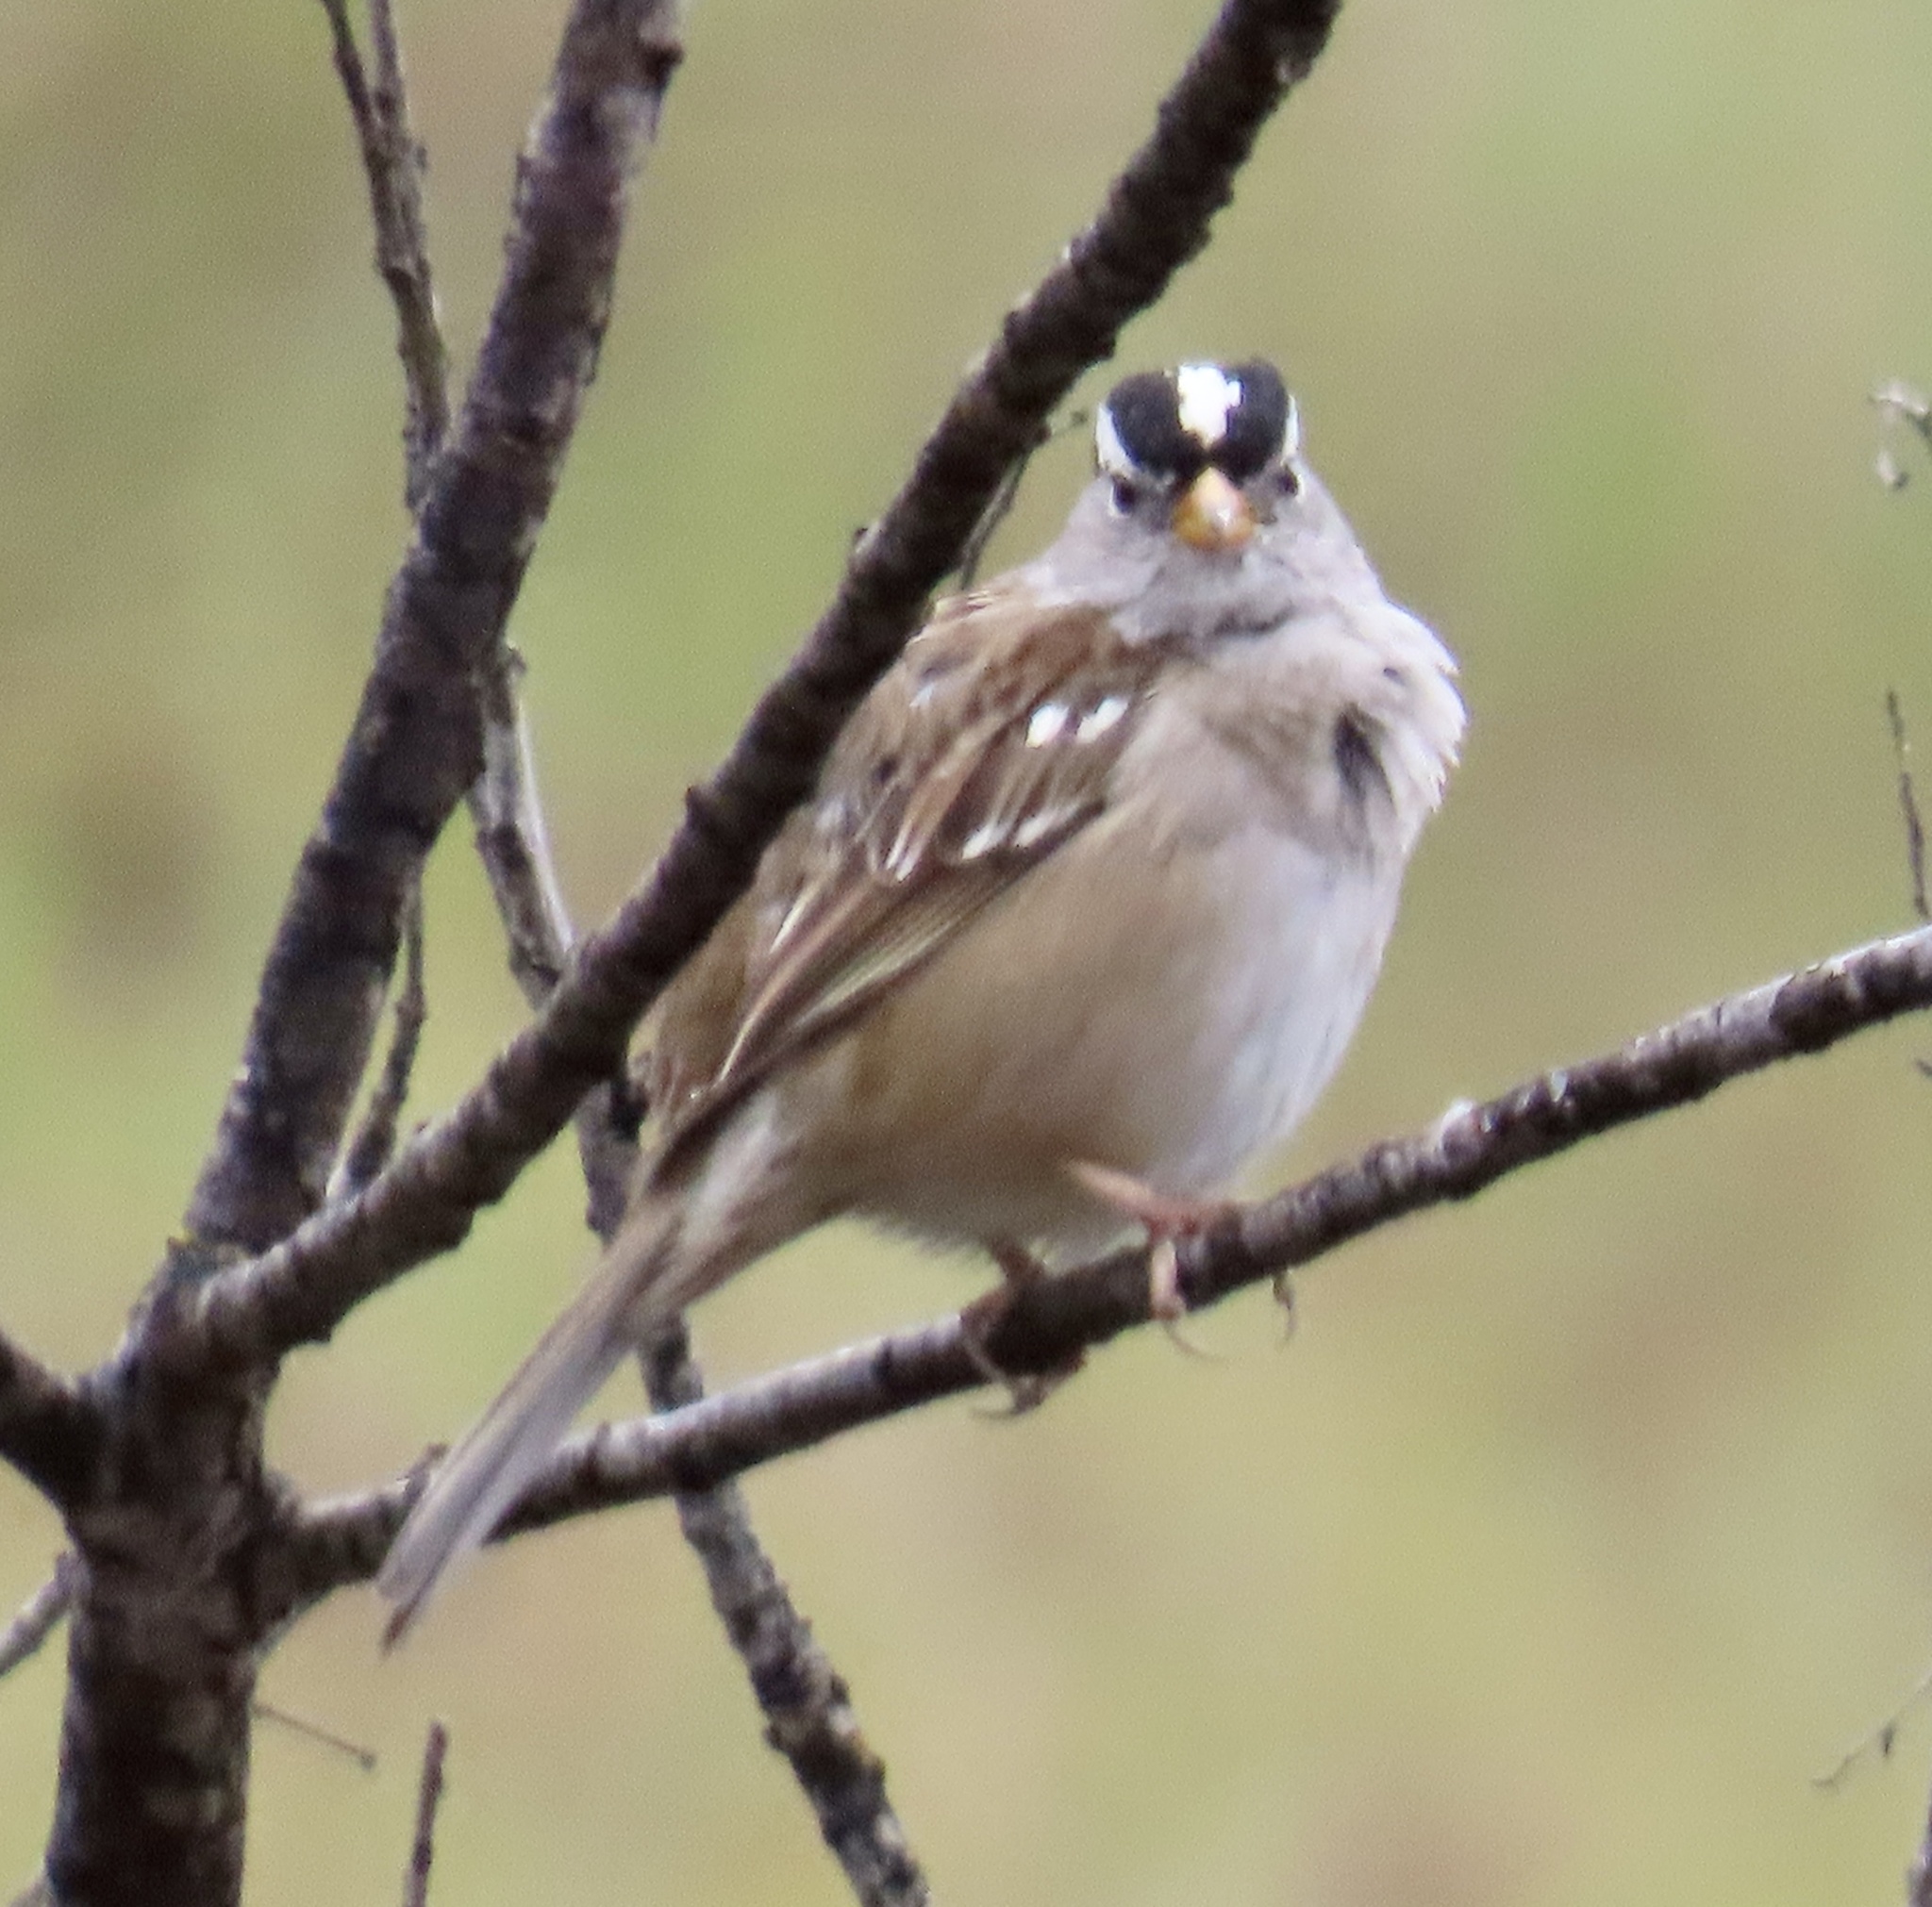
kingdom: Animalia
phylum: Chordata
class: Aves
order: Passeriformes
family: Passerellidae
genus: Zonotrichia
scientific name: Zonotrichia leucophrys
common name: White-crowned sparrow
